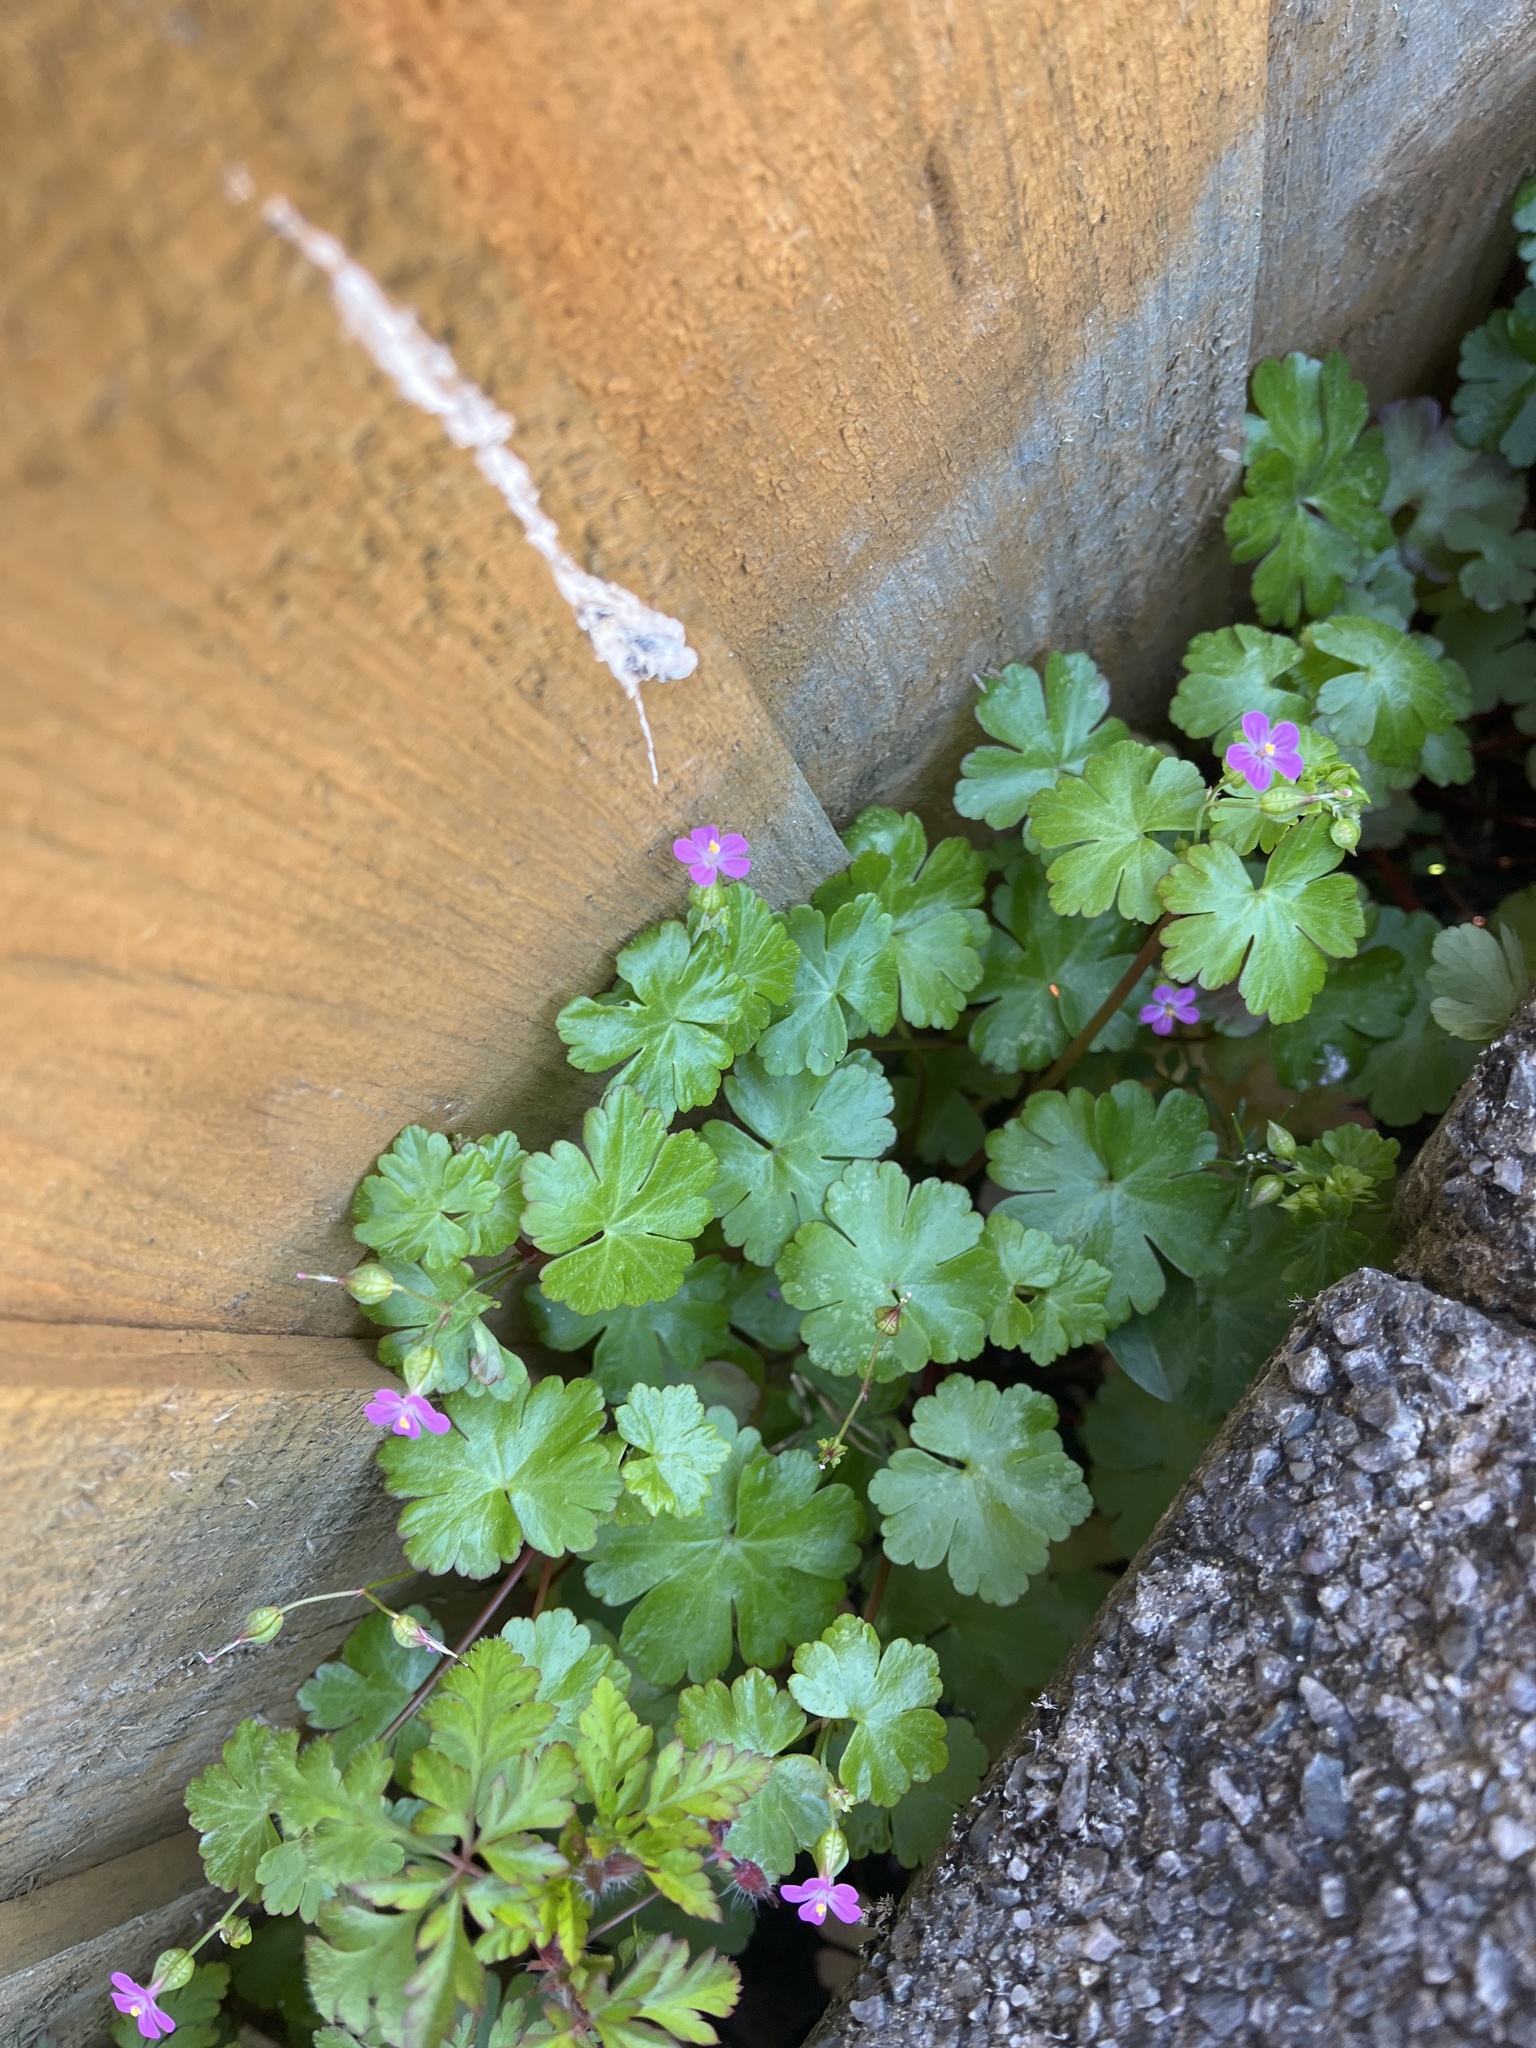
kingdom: Plantae
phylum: Tracheophyta
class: Magnoliopsida
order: Geraniales
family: Geraniaceae
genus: Geranium
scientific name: Geranium lucidum
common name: Shining crane's-bill
